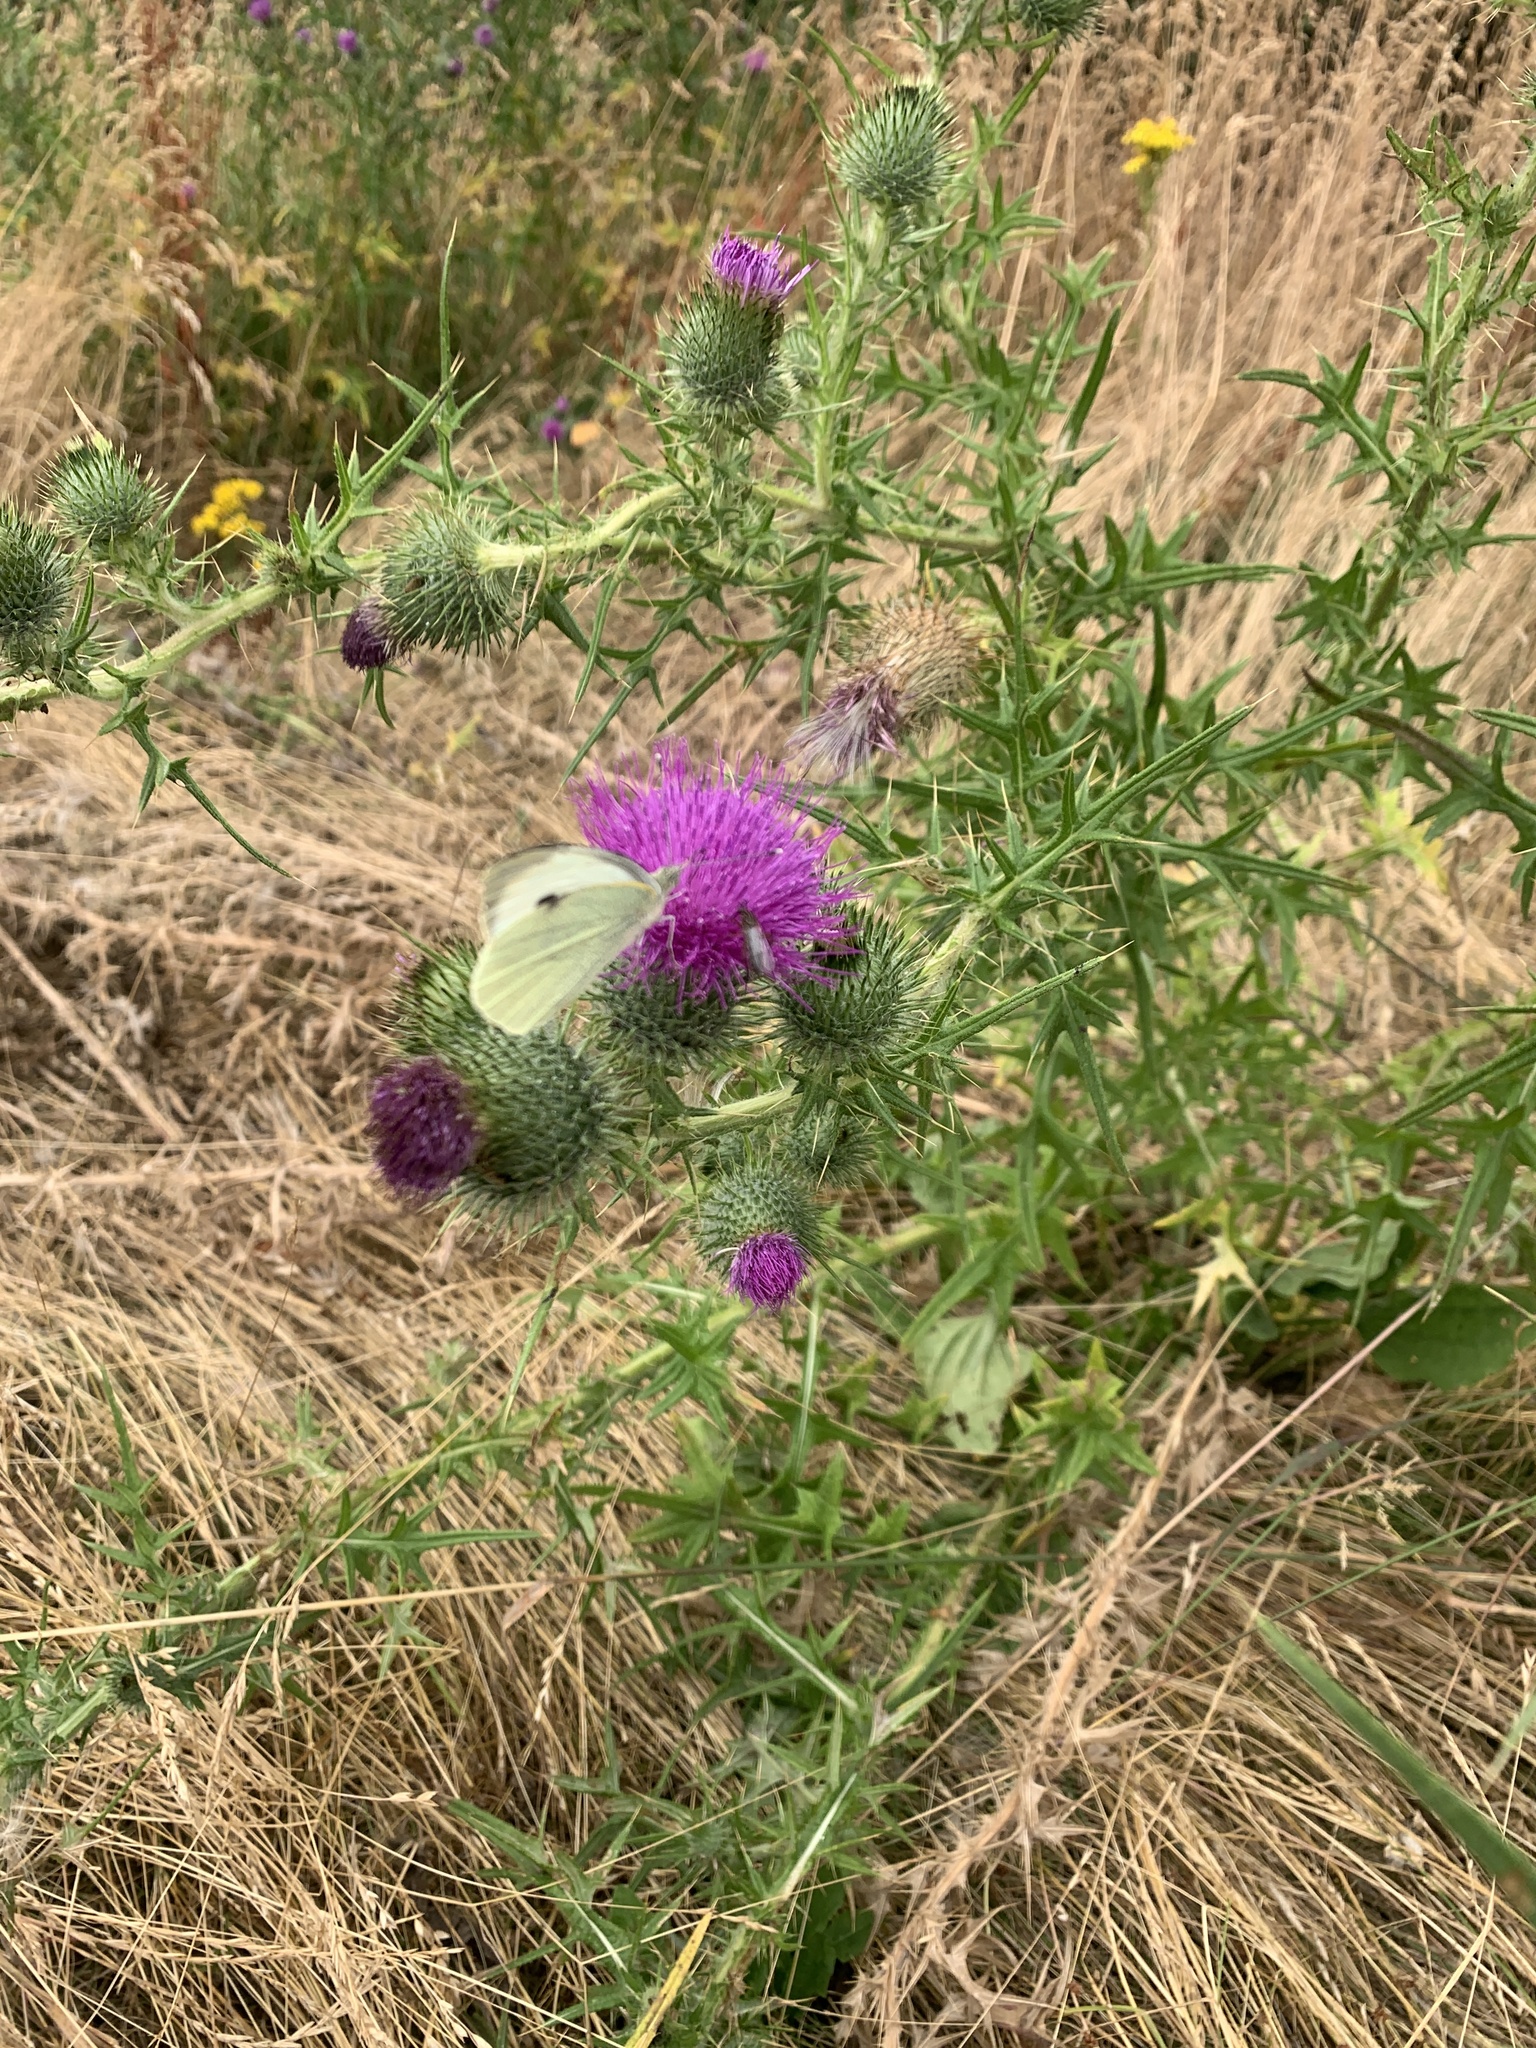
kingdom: Animalia
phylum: Arthropoda
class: Insecta
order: Lepidoptera
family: Pieridae
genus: Pieris
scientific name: Pieris brassicae
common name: Large white
